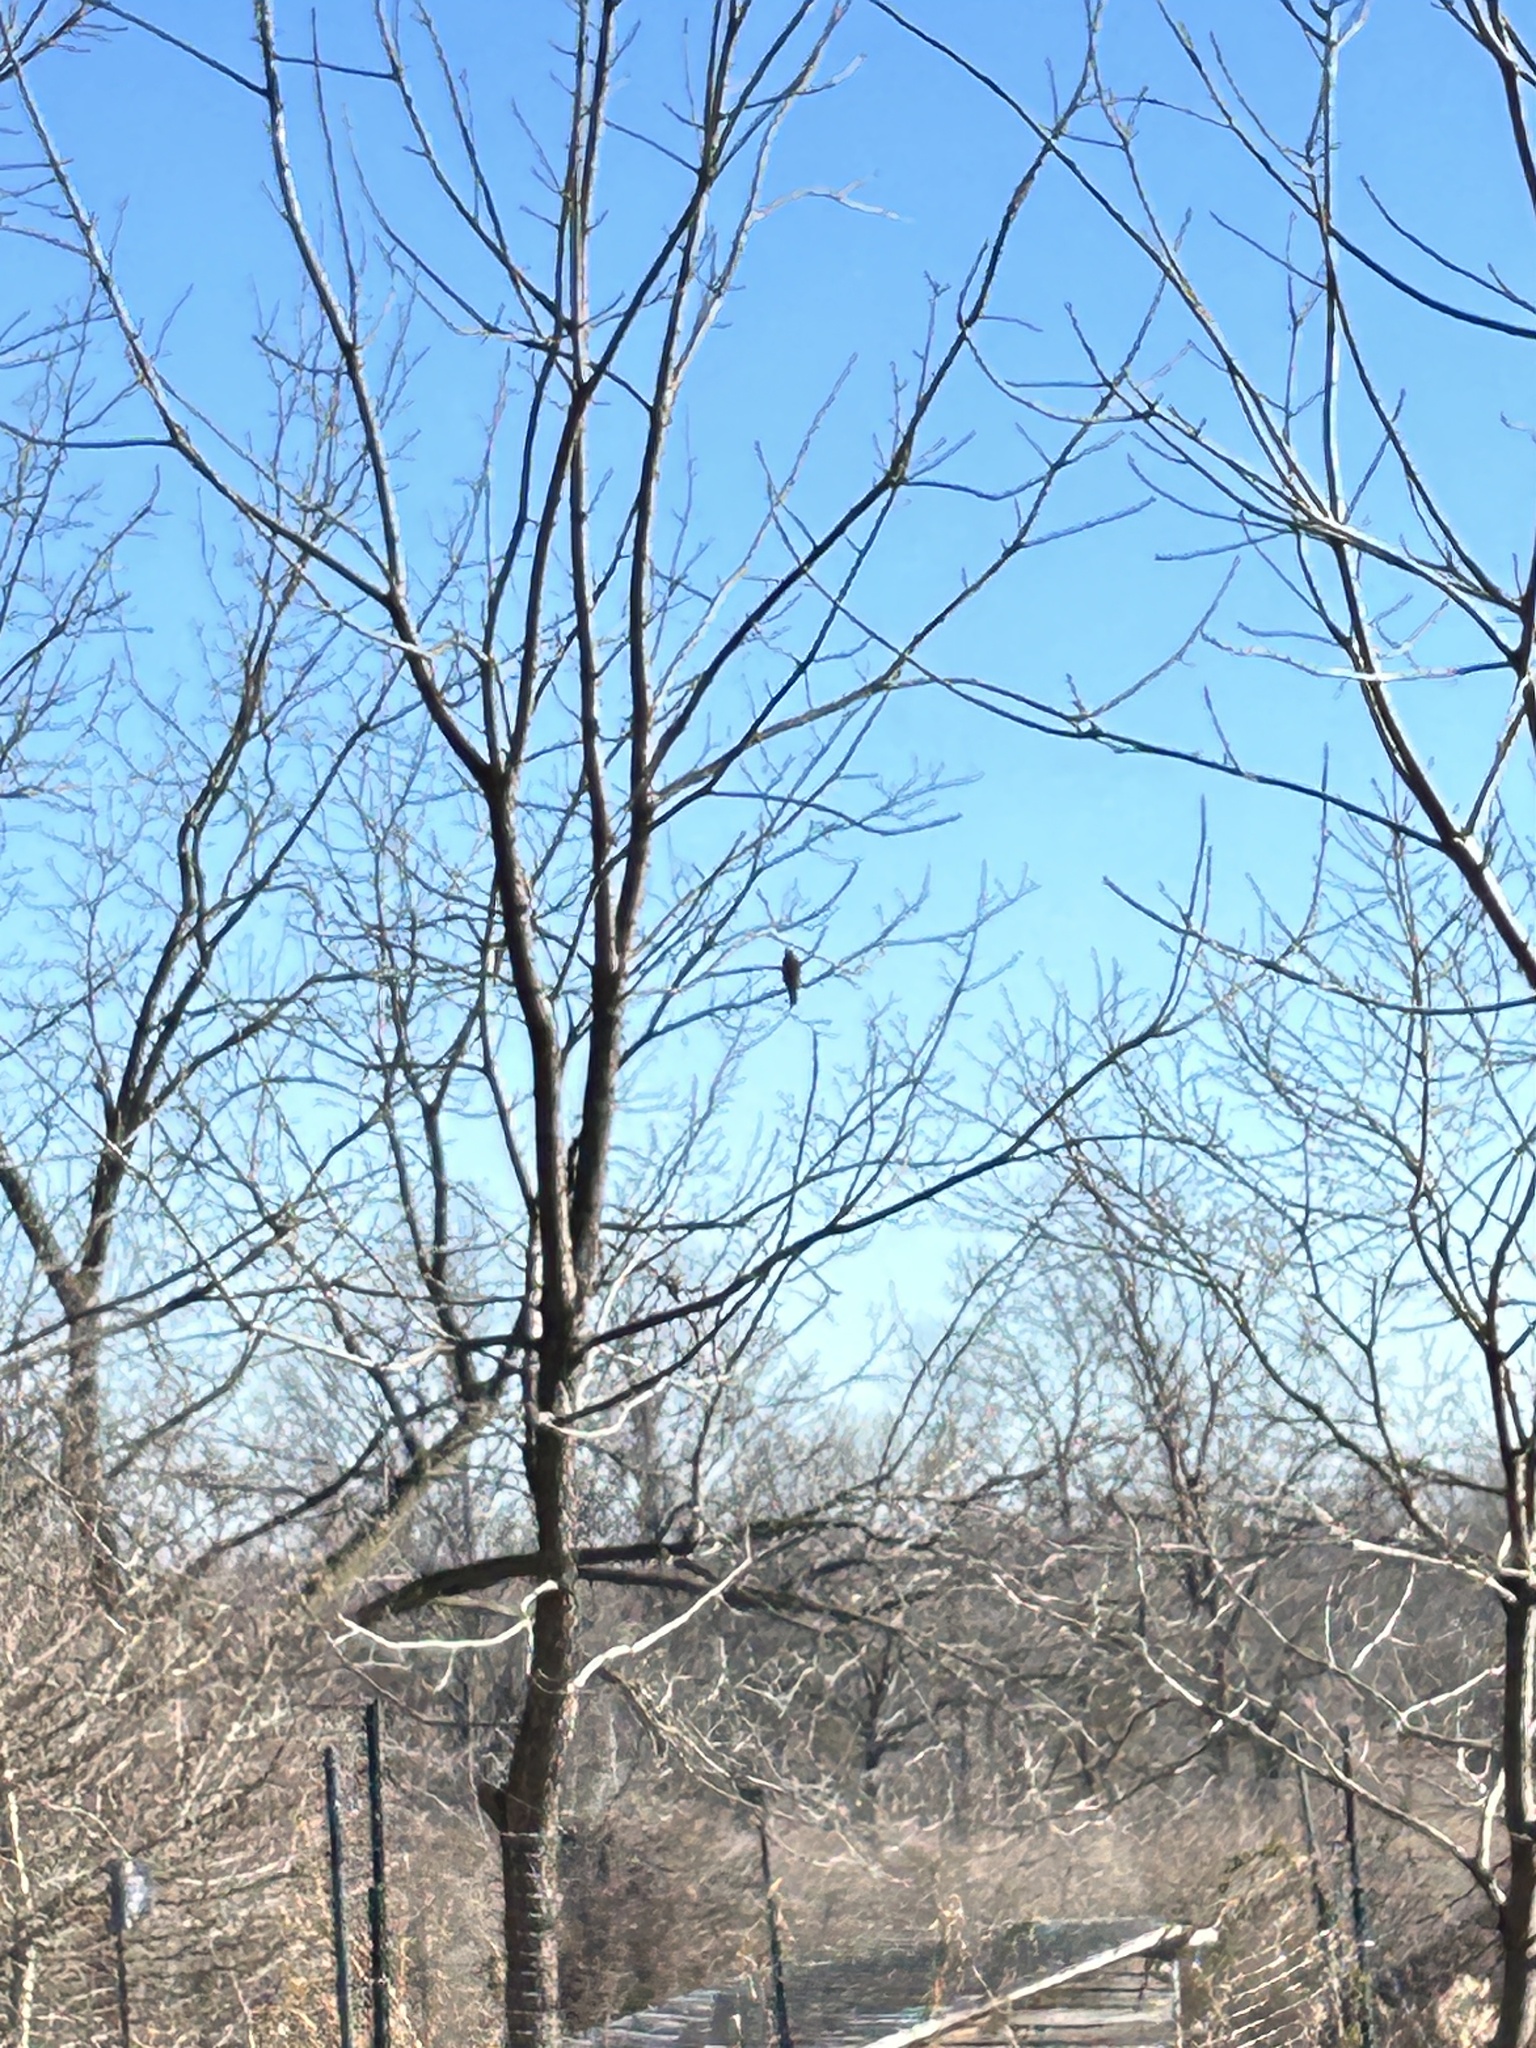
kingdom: Animalia
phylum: Chordata
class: Aves
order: Accipitriformes
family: Accipitridae
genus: Accipiter
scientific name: Accipiter cooperii
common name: Cooper's hawk
